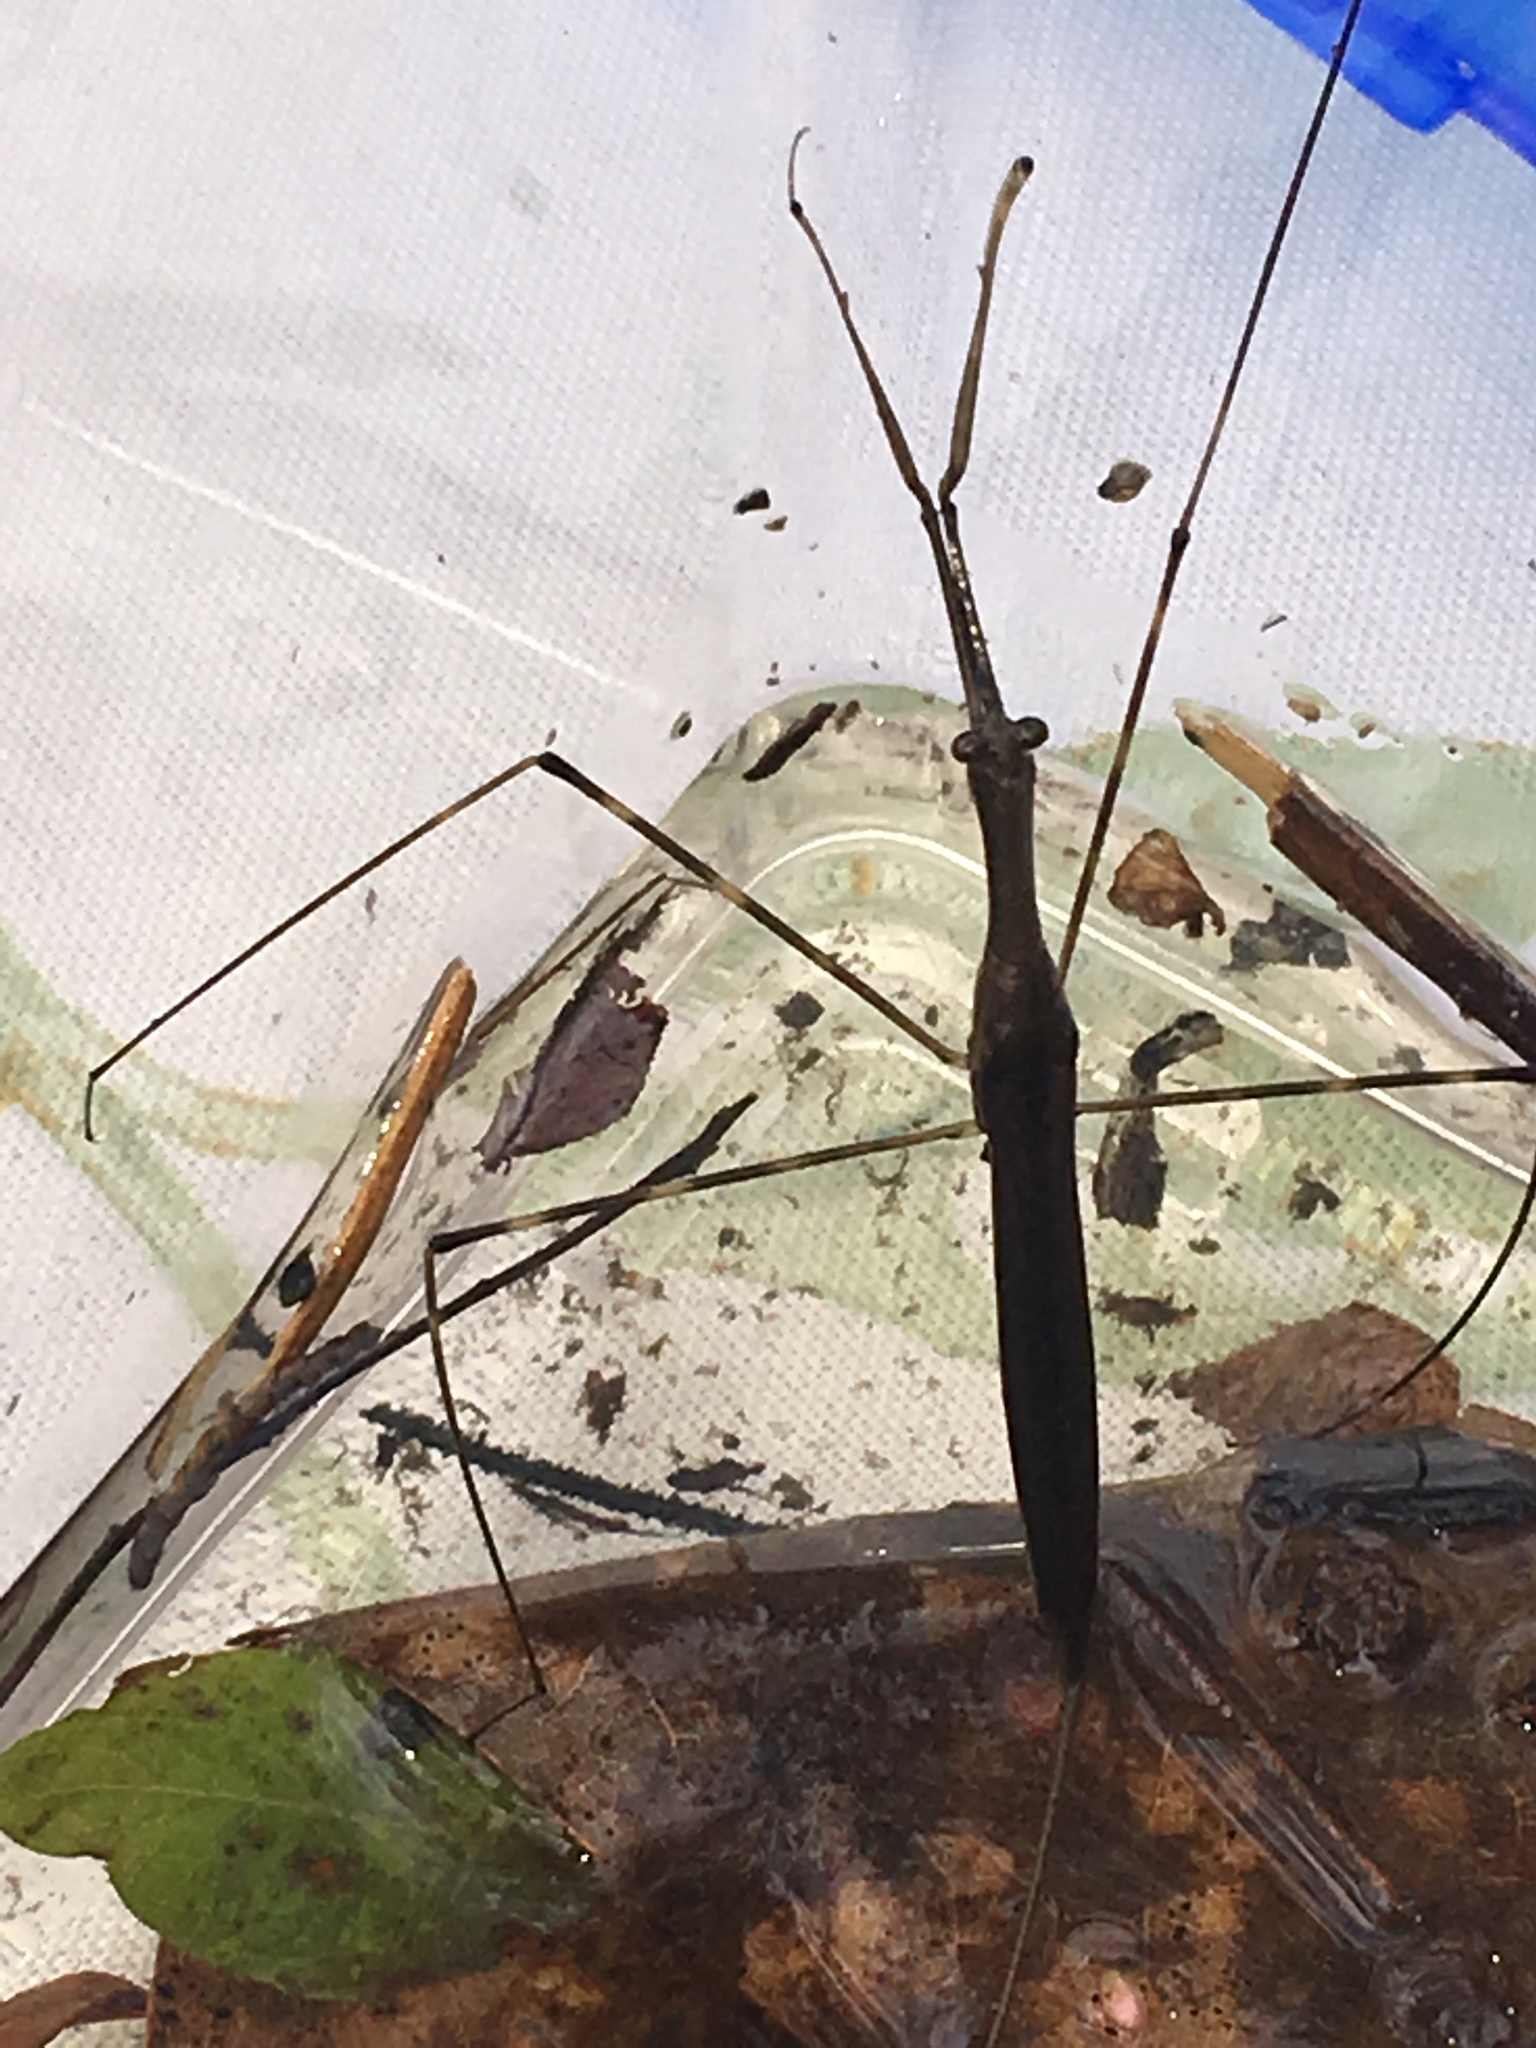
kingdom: Animalia
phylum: Arthropoda
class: Insecta
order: Hemiptera
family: Nepidae
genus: Ranatra
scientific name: Ranatra
